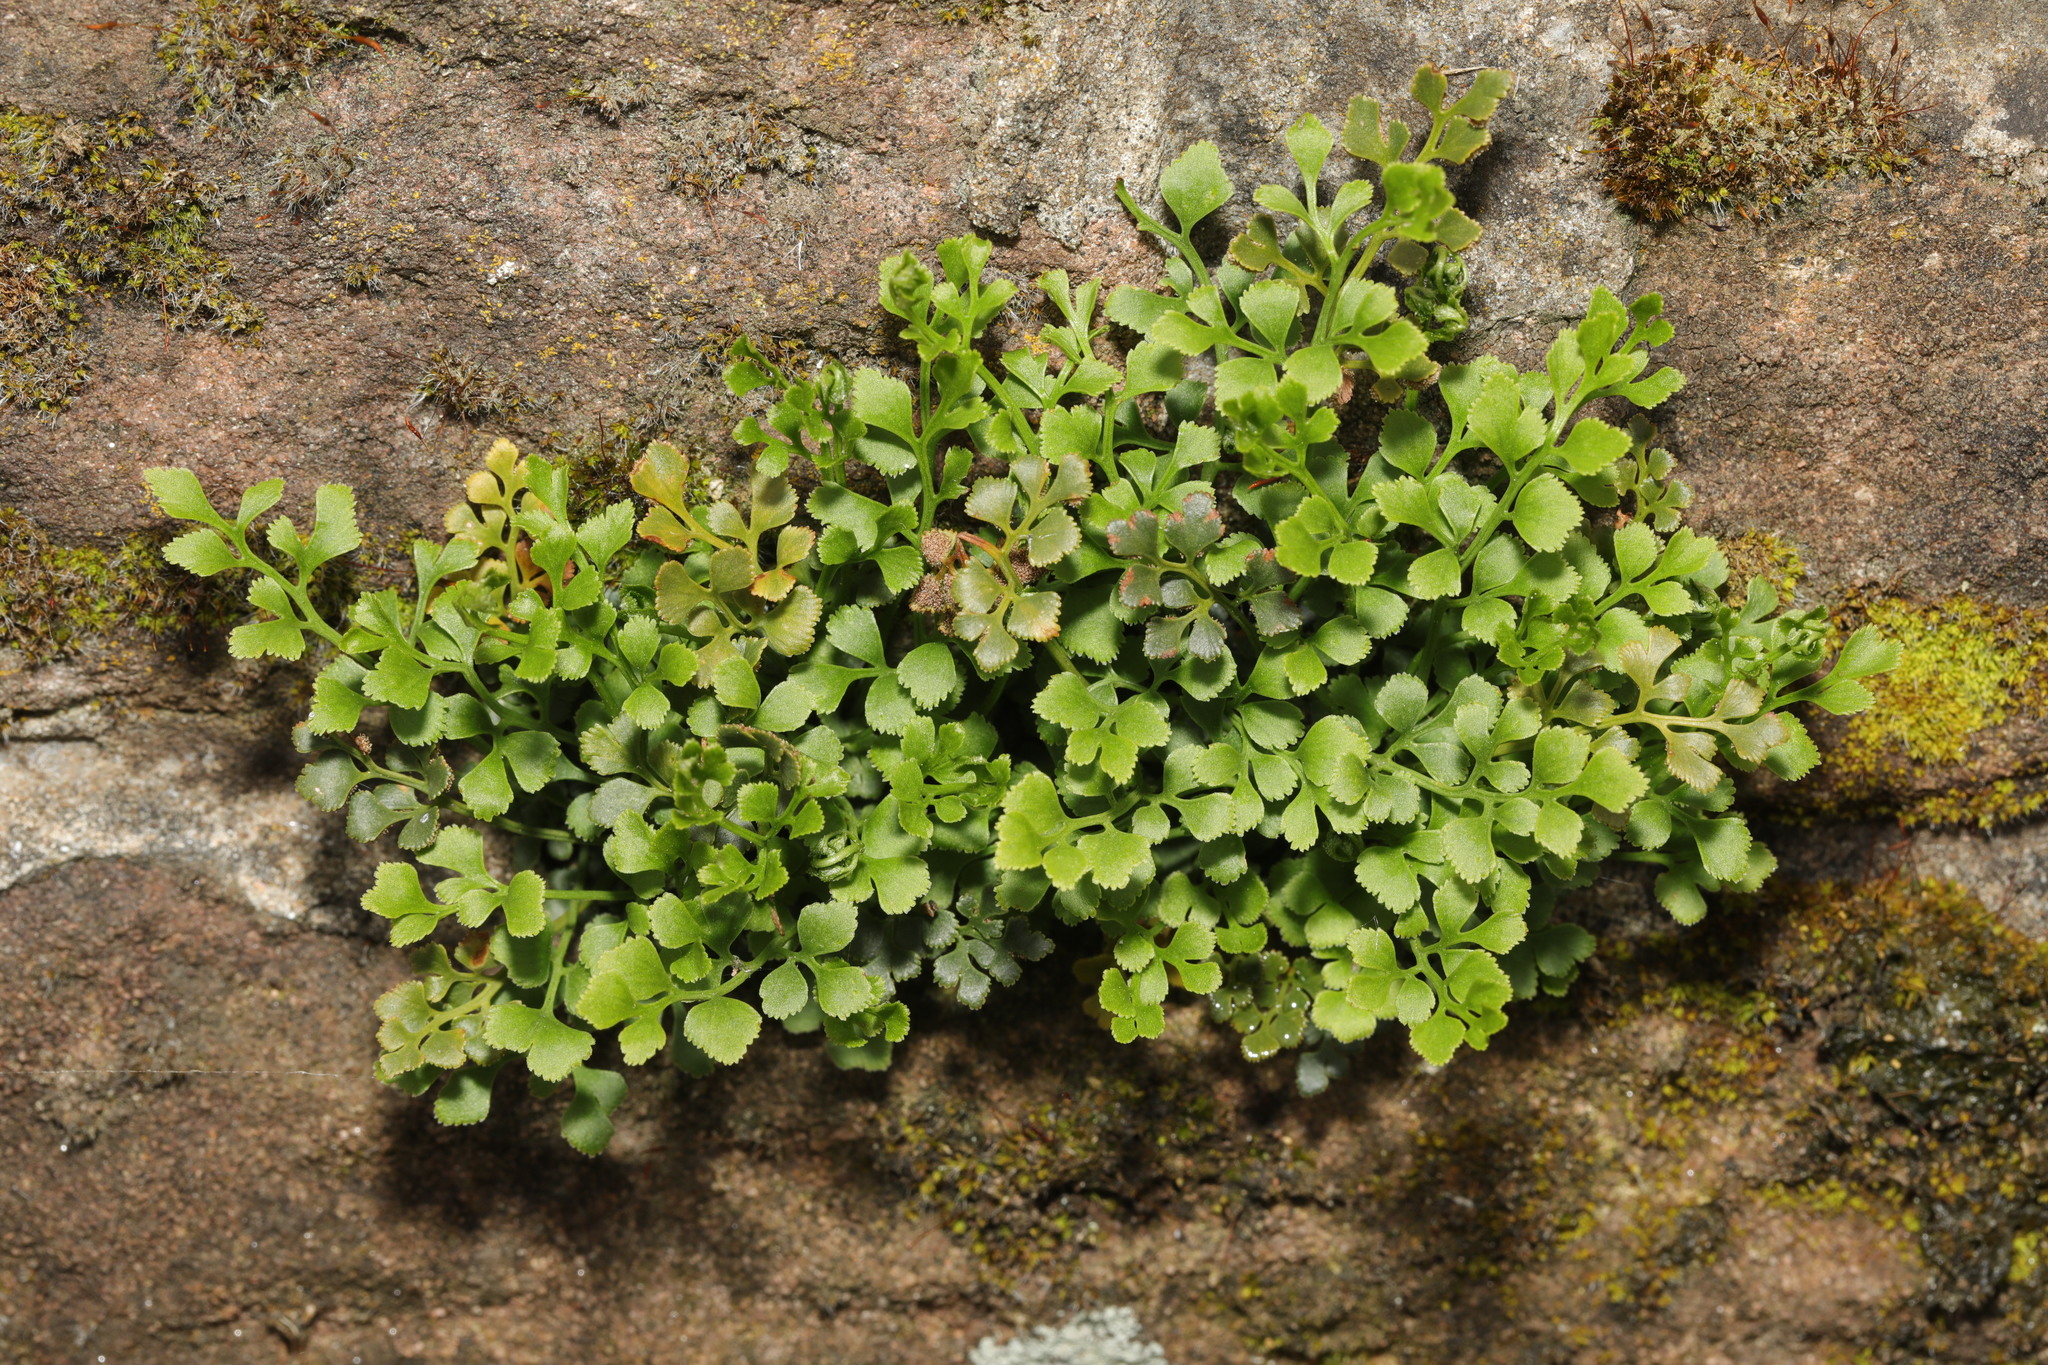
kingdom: Plantae
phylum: Tracheophyta
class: Polypodiopsida
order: Polypodiales
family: Aspleniaceae
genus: Asplenium
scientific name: Asplenium ruta-muraria
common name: Wall-rue
